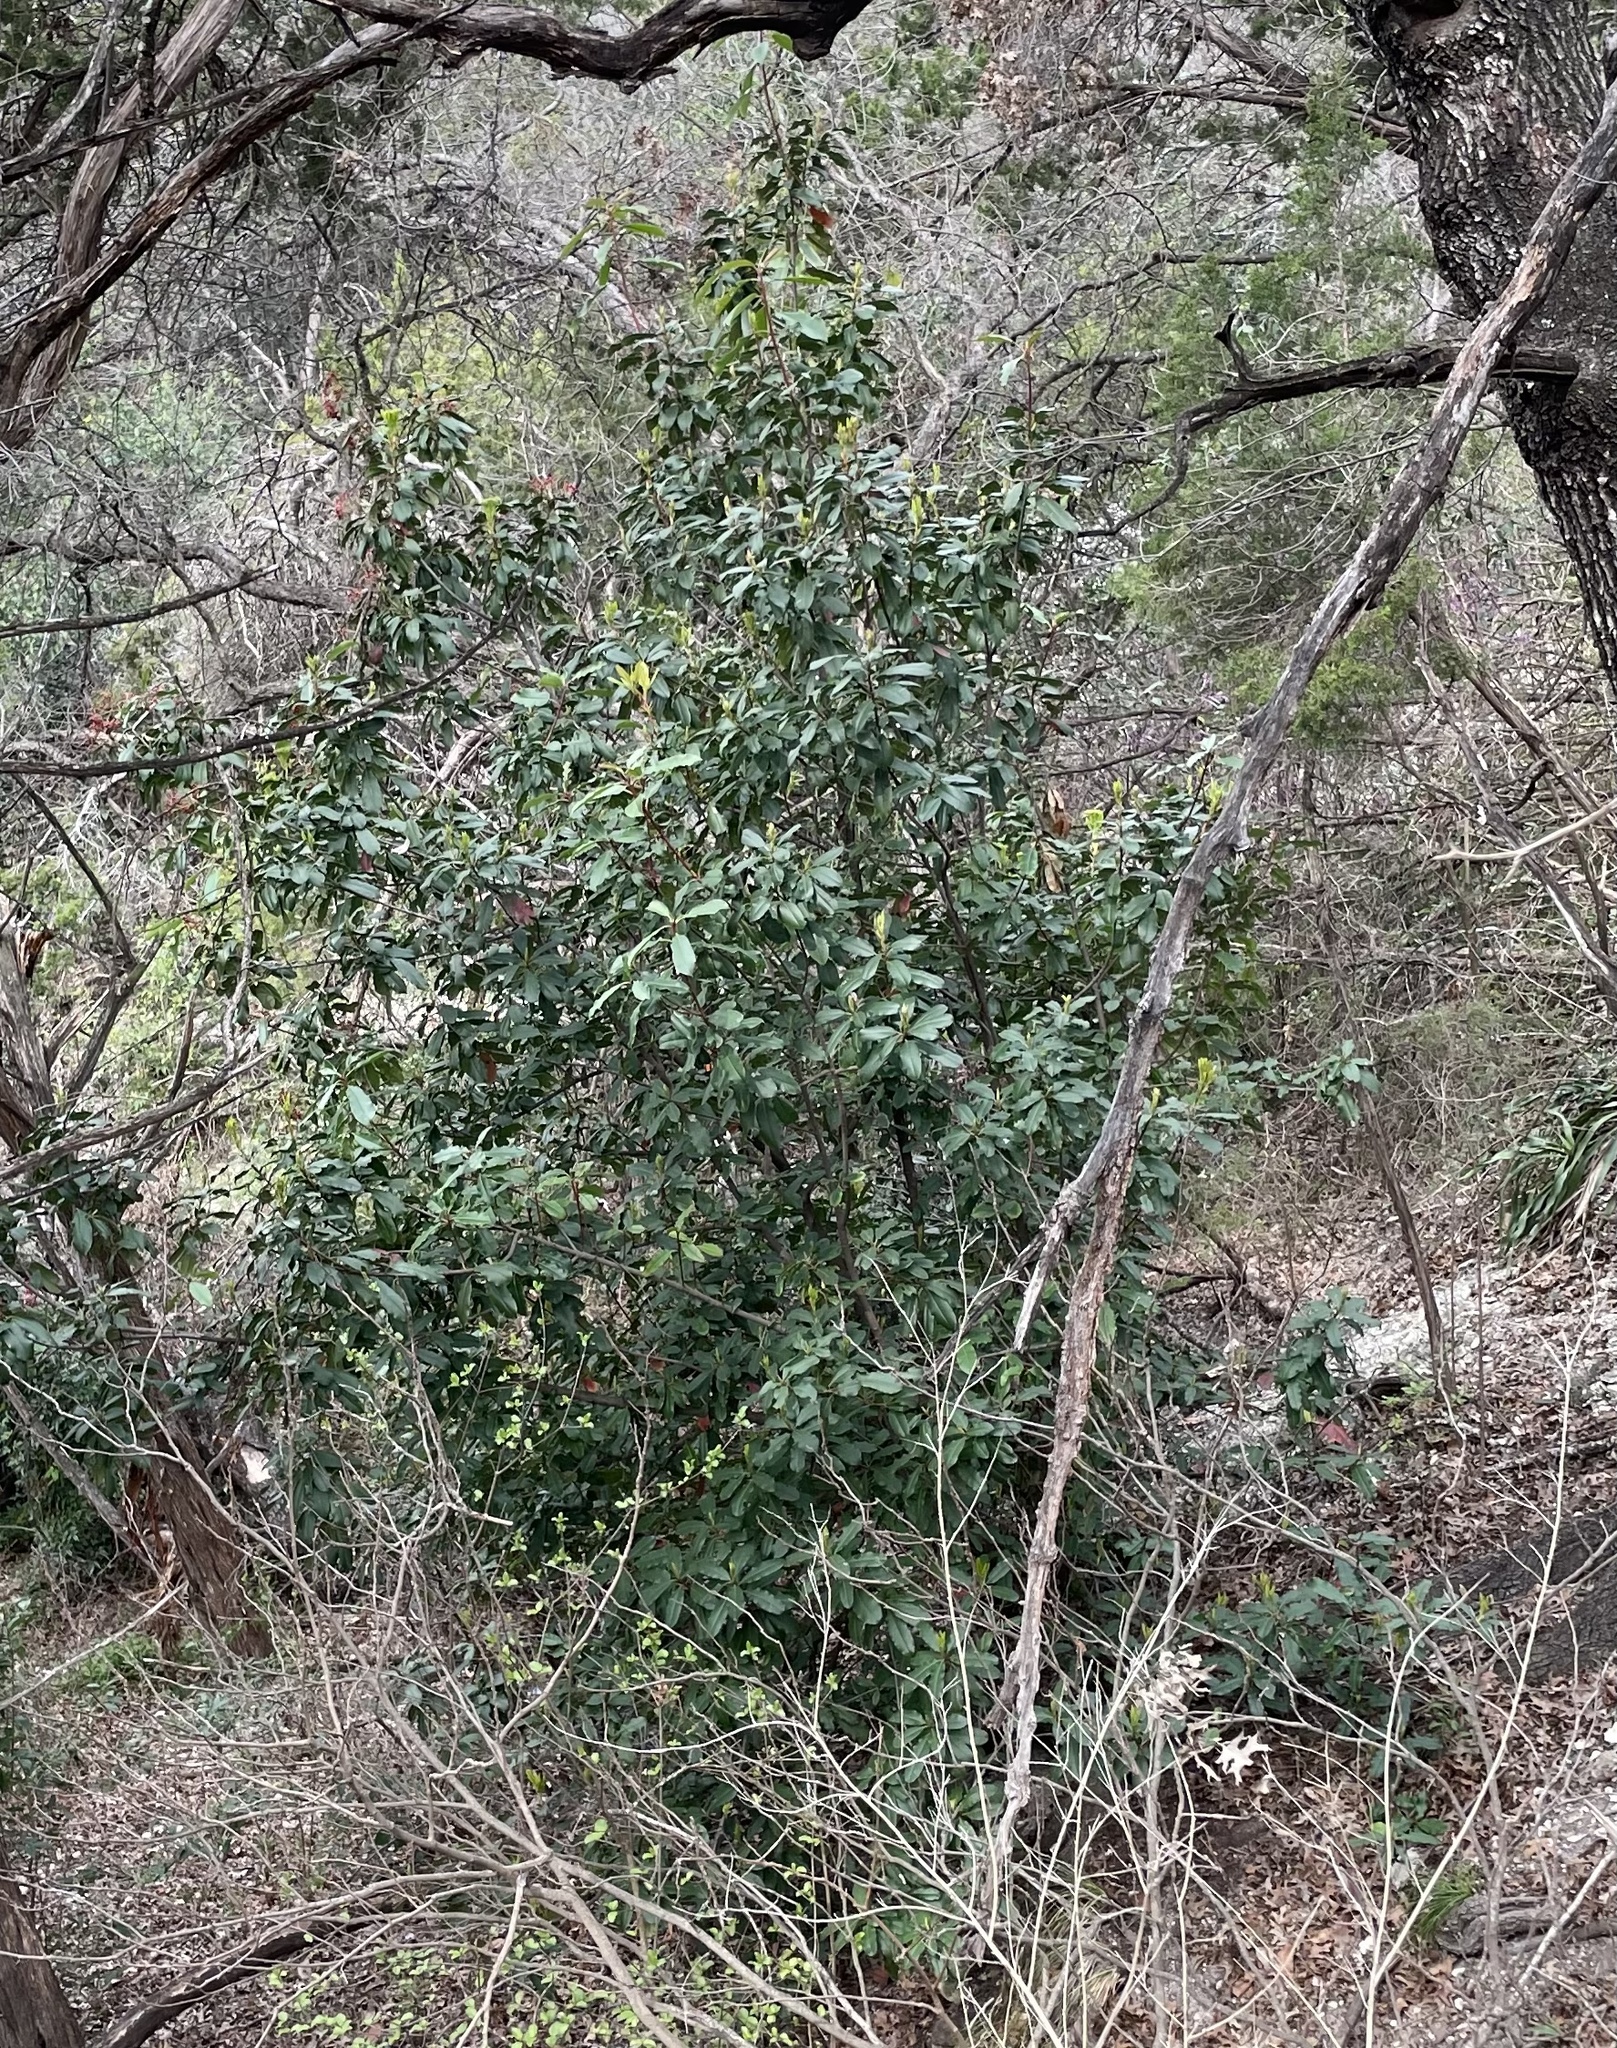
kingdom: Plantae
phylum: Tracheophyta
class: Magnoliopsida
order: Rosales
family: Rosaceae
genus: Photinia
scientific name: Photinia serratifolia
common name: Taiwanese photinia
